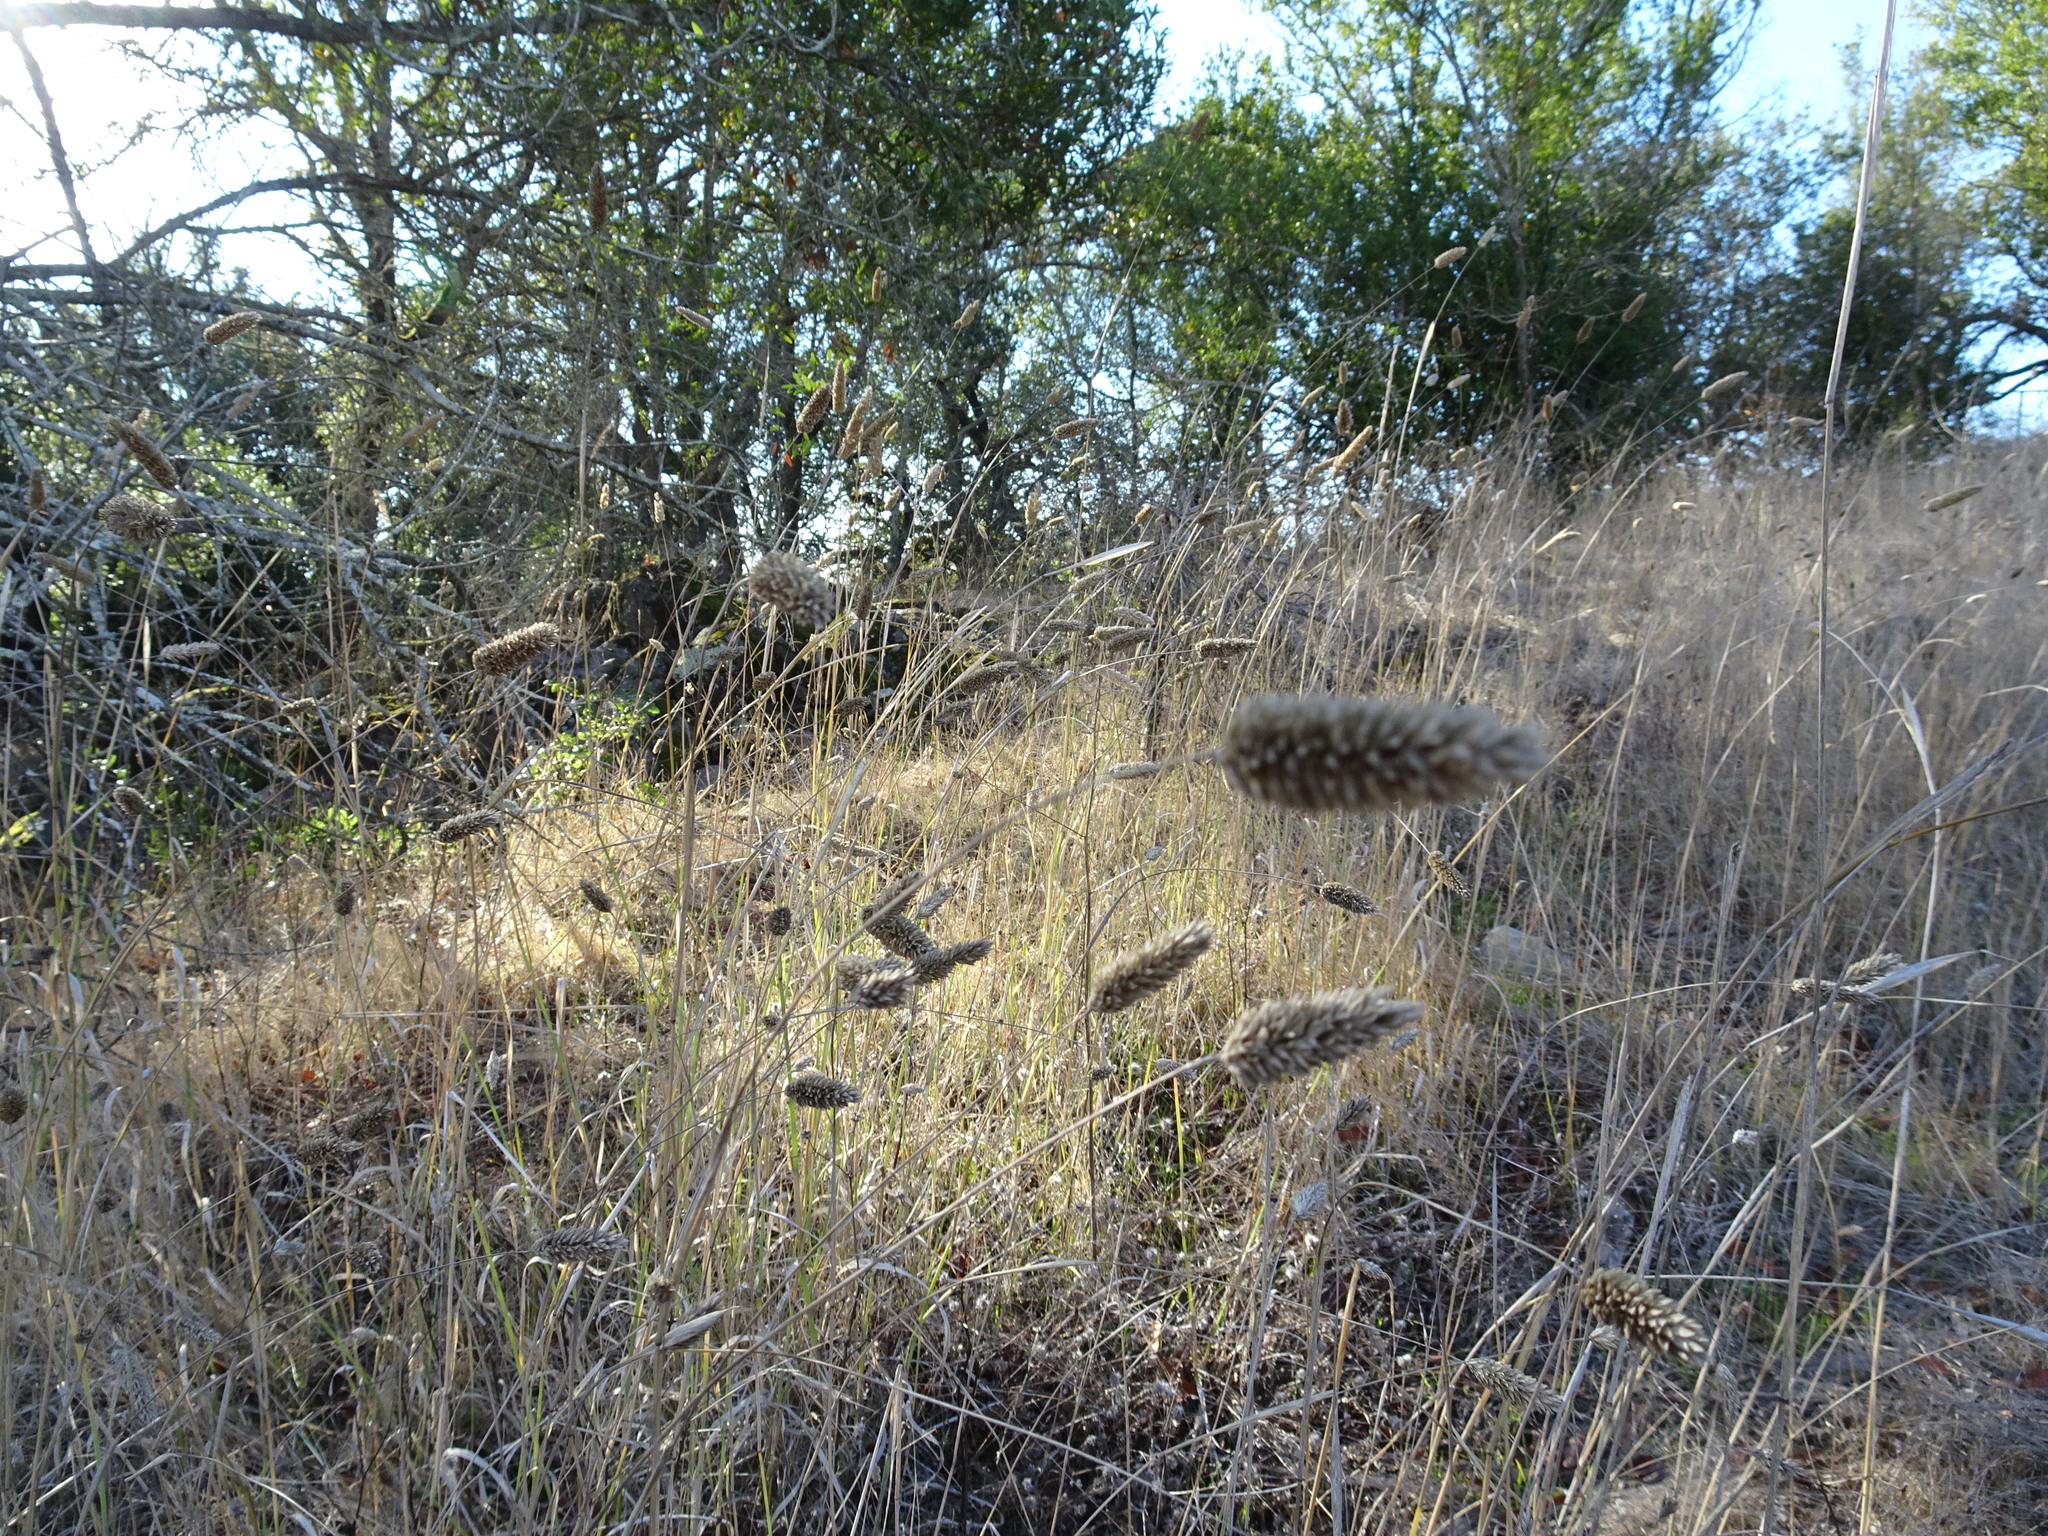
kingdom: Plantae
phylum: Tracheophyta
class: Liliopsida
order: Poales
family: Poaceae
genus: Phalaris
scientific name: Phalaris aquatica
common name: Bulbous canary-grass
